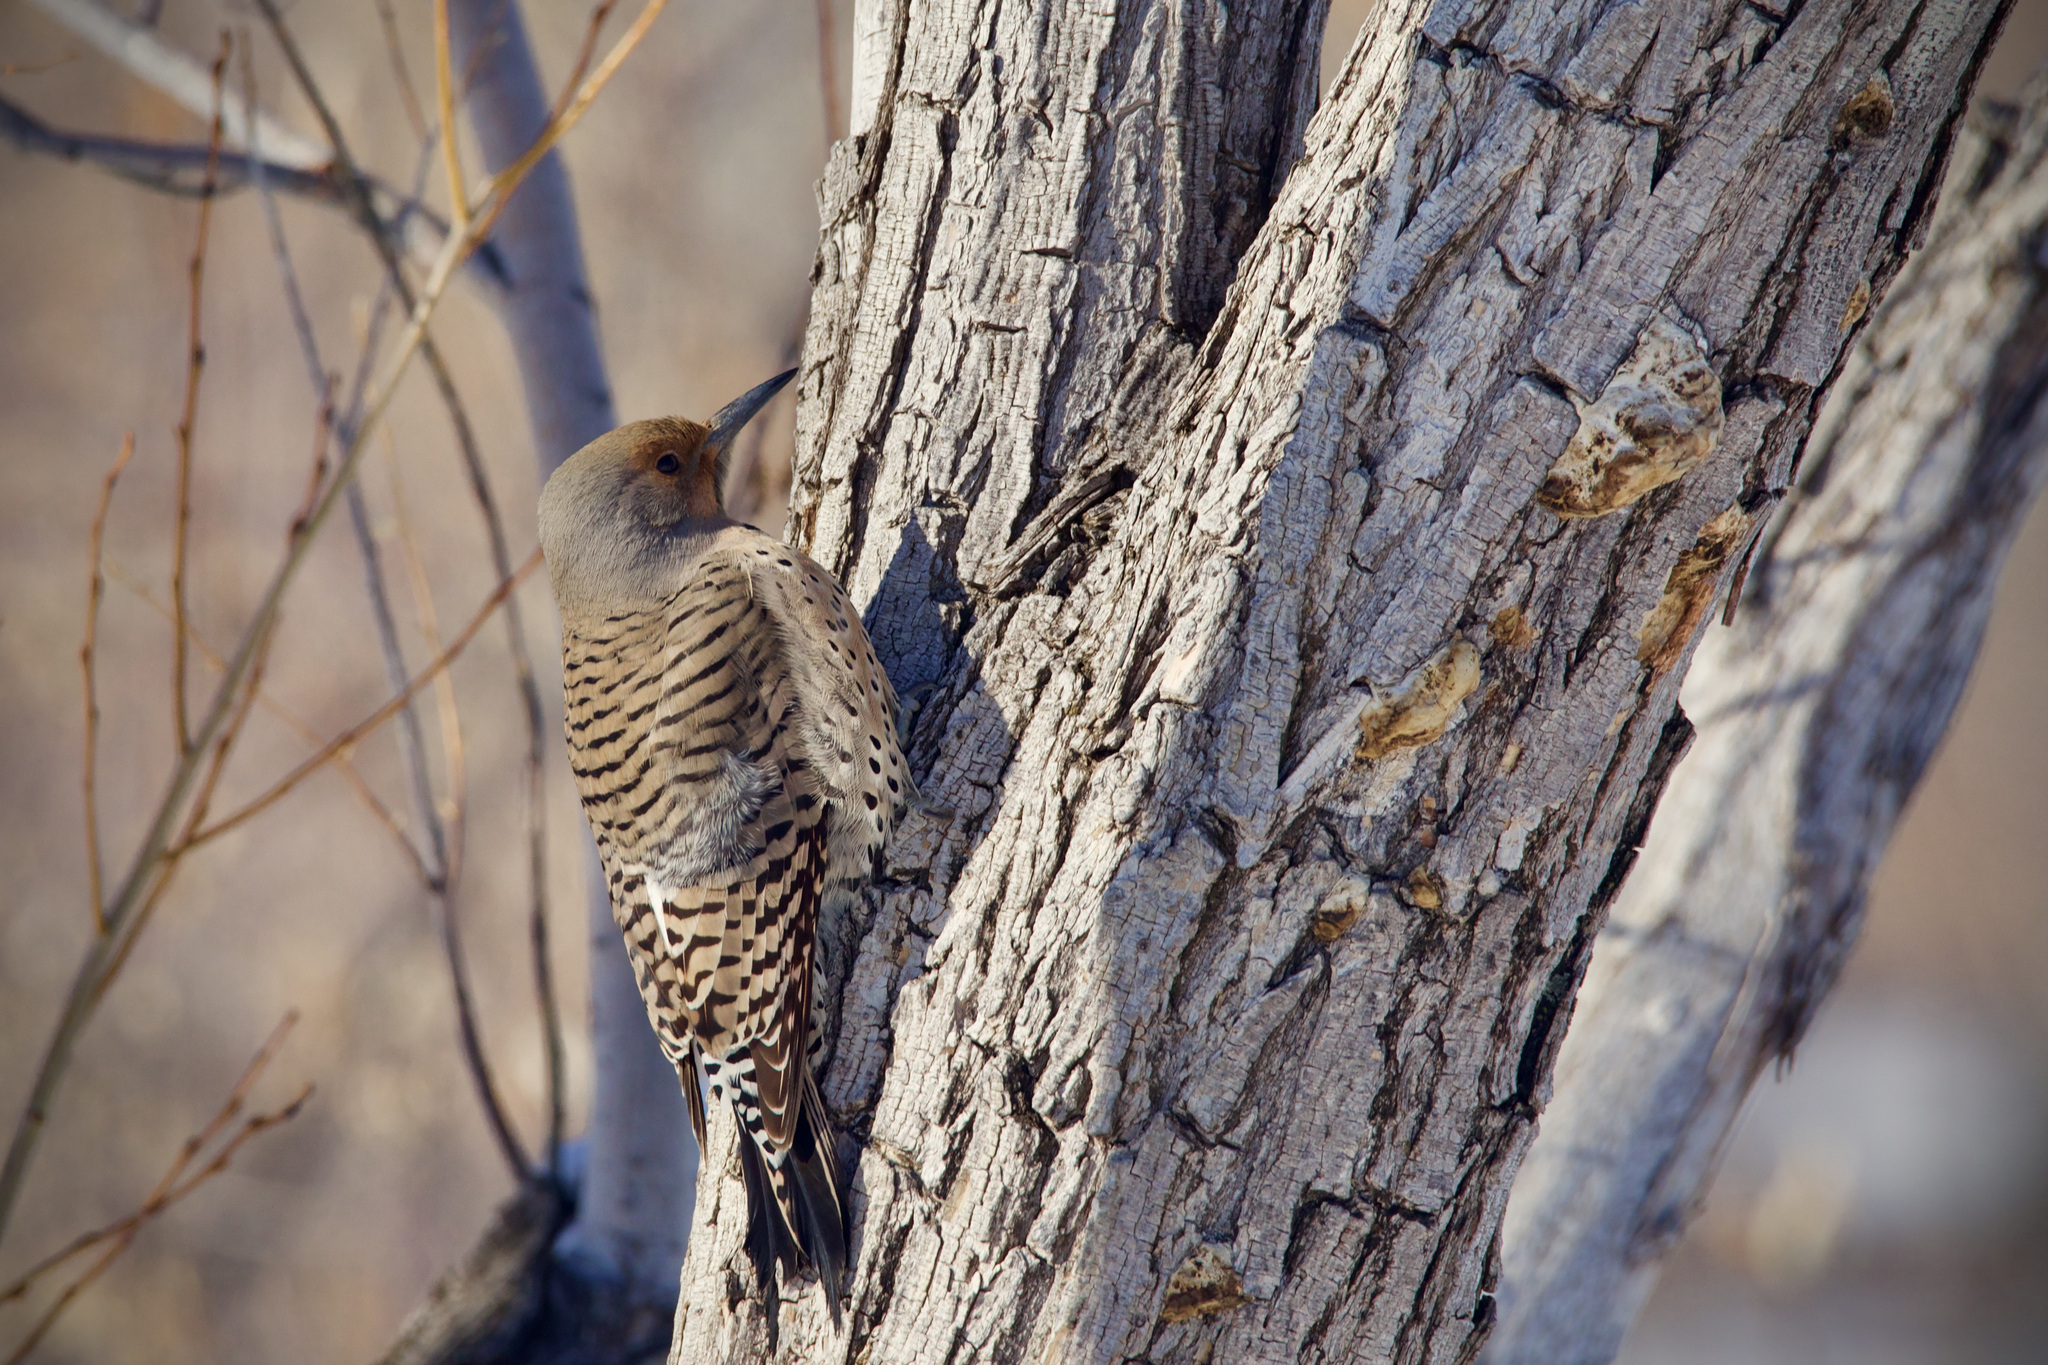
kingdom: Animalia
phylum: Chordata
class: Aves
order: Piciformes
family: Picidae
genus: Colaptes
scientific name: Colaptes auratus
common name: Northern flicker
